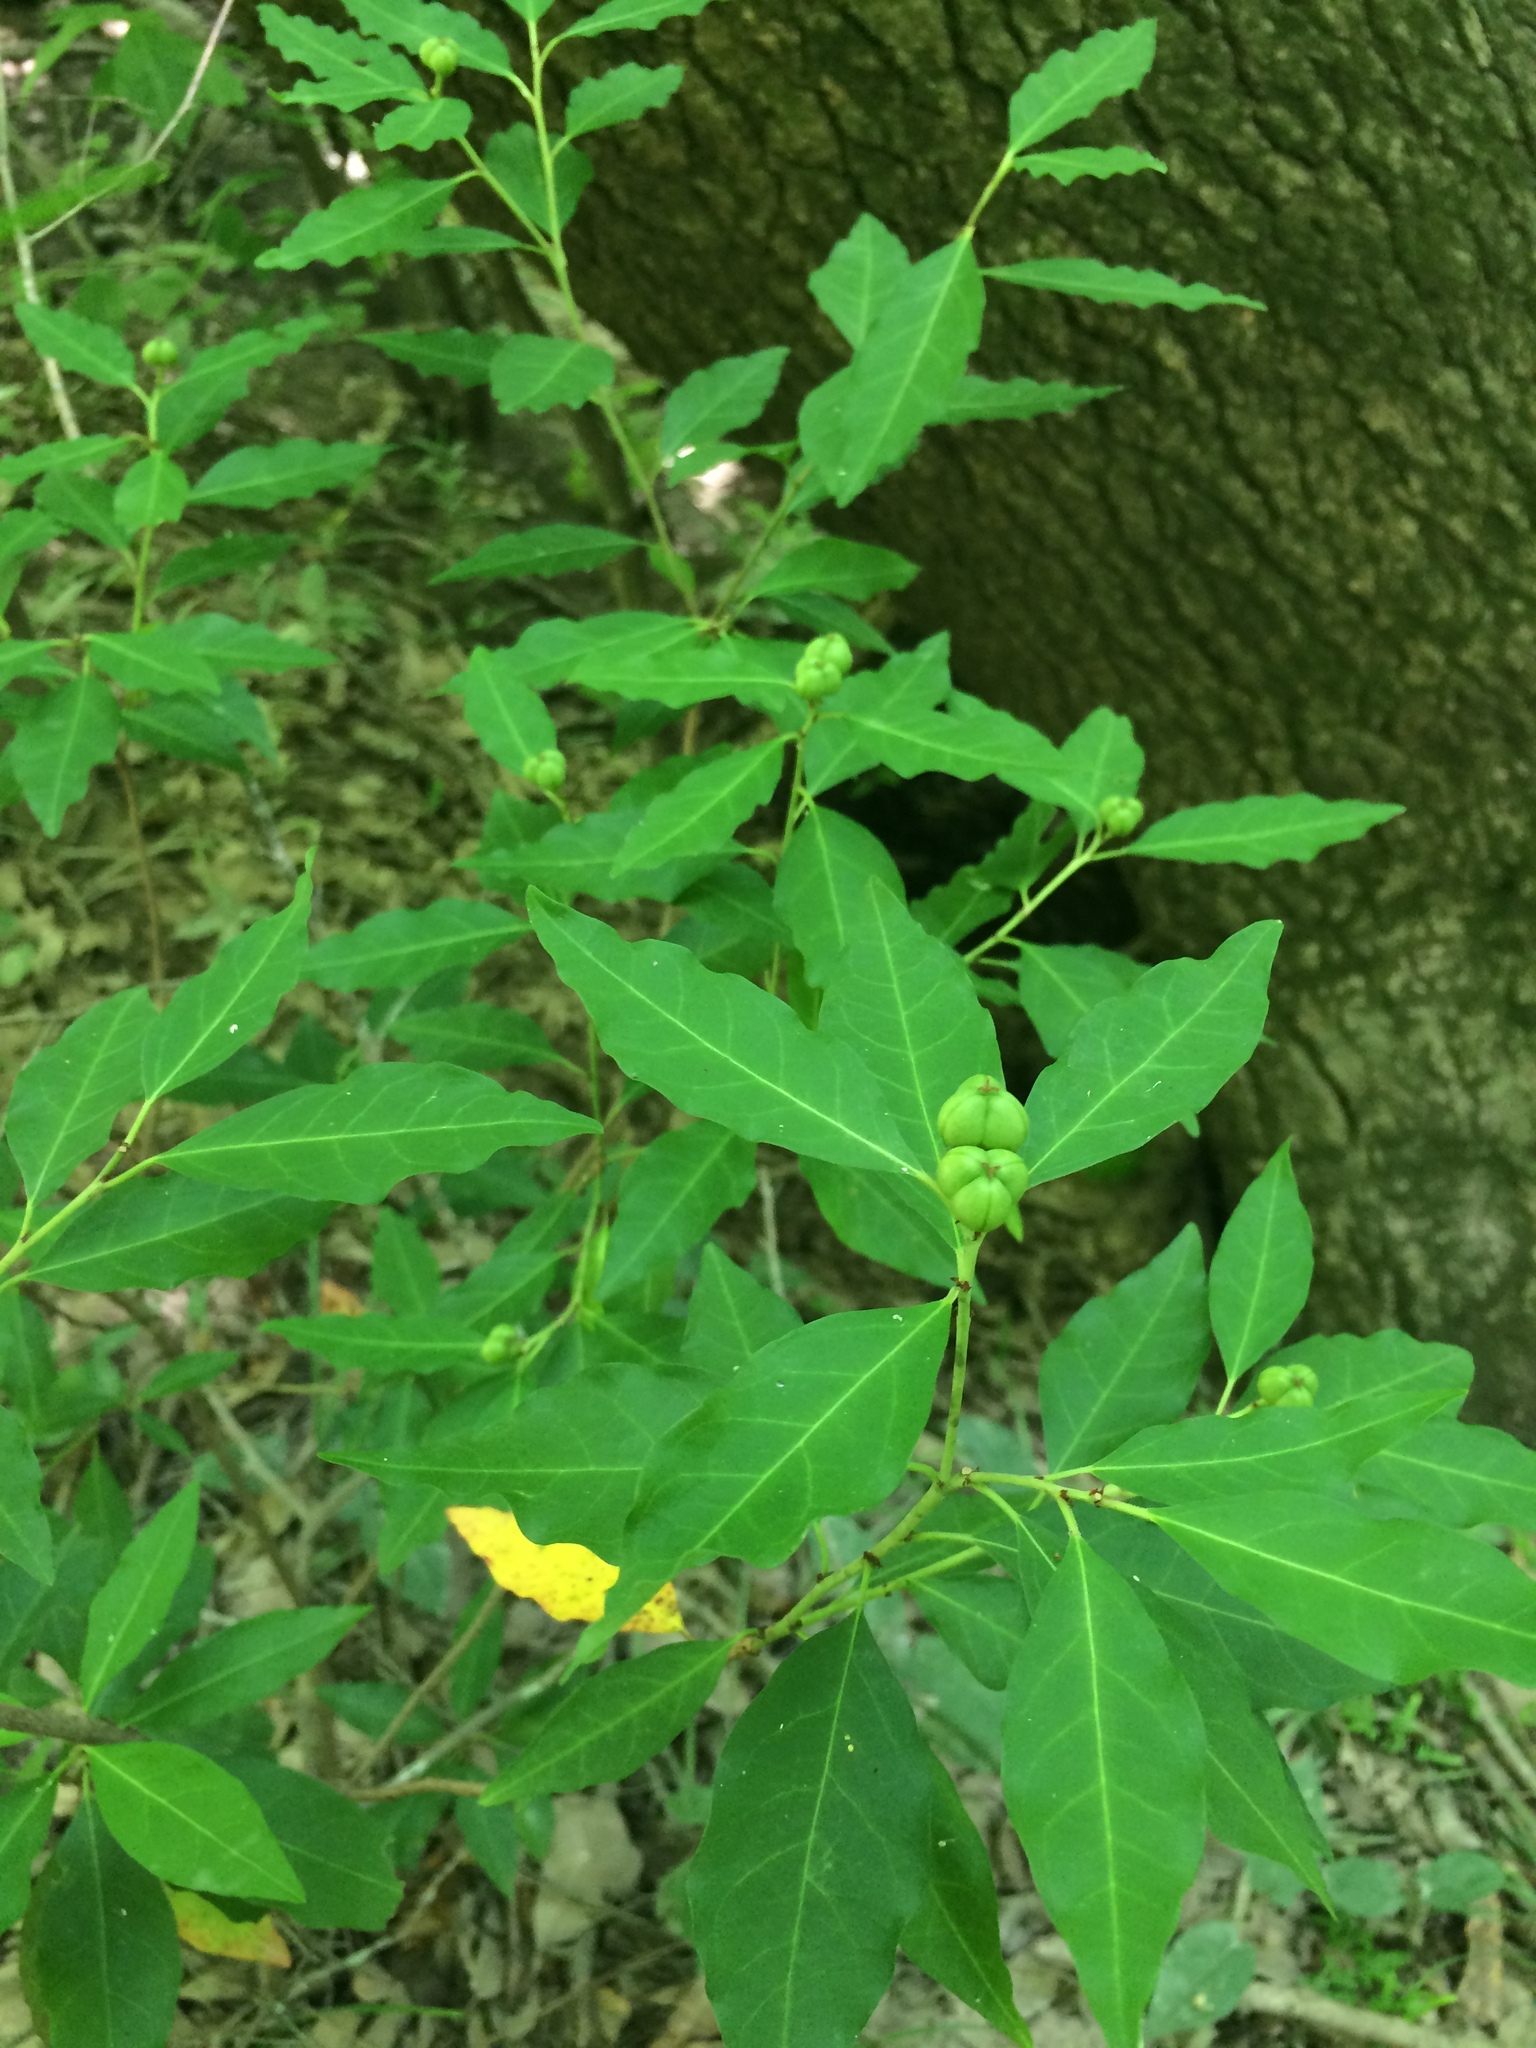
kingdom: Plantae
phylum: Tracheophyta
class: Magnoliopsida
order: Malpighiales
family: Euphorbiaceae
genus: Ditrysinia
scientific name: Ditrysinia fruticosa
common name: Gulf sebastian-bush
